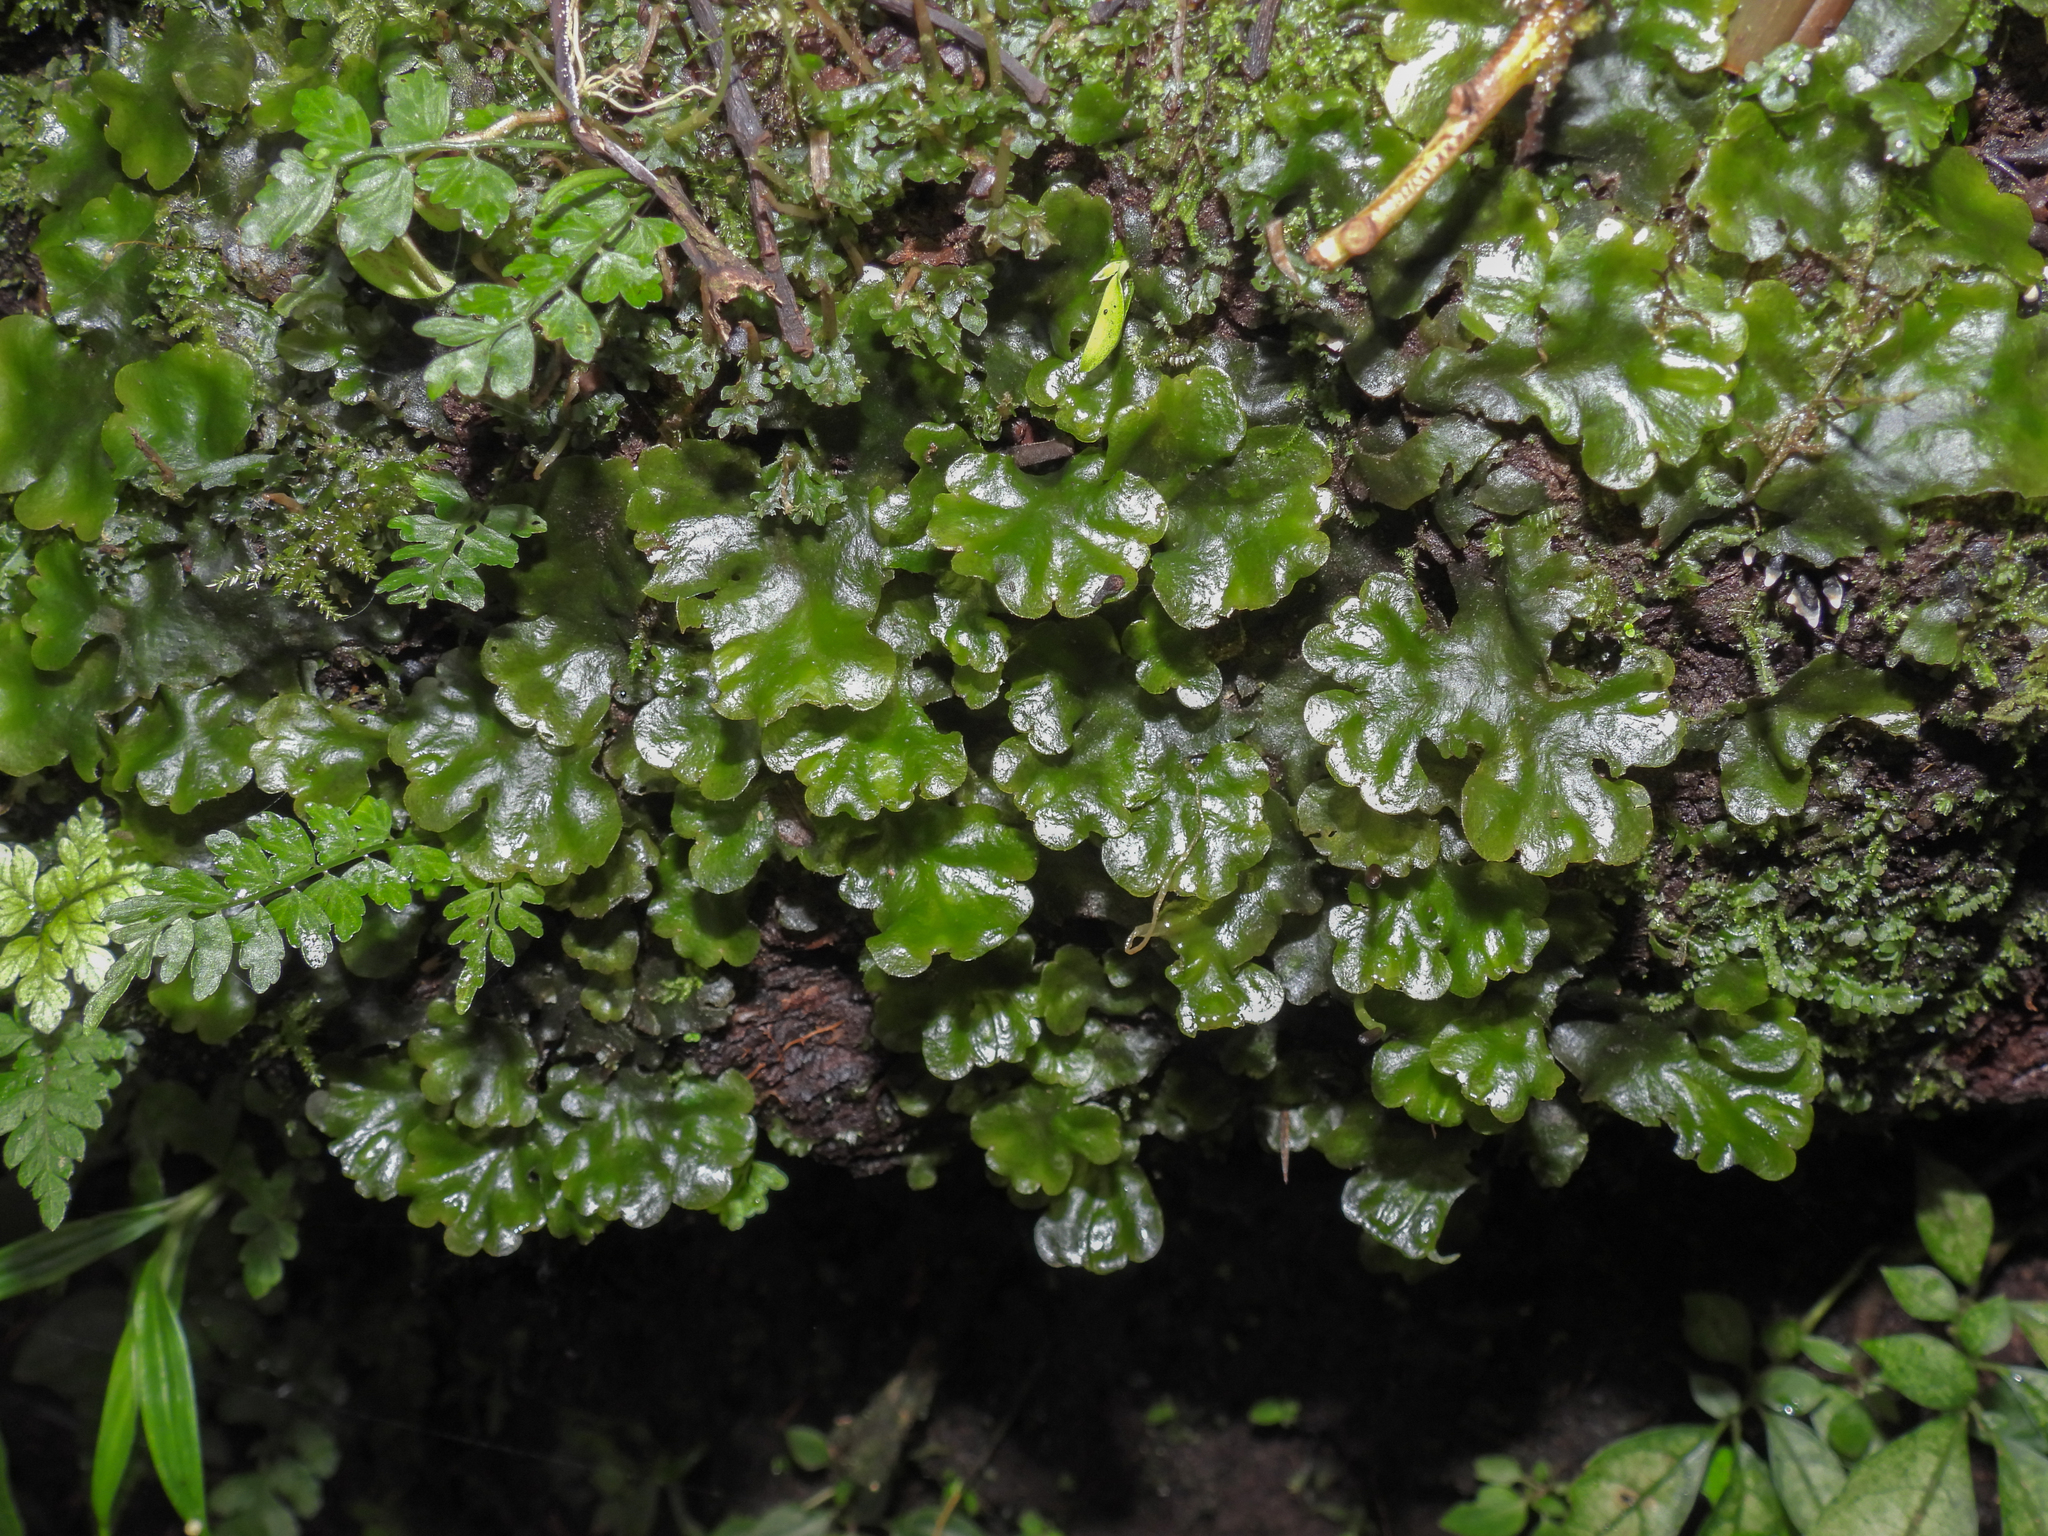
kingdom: Plantae
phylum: Marchantiophyta
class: Marchantiopsida
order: Marchantiales
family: Monocleaceae
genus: Monoclea
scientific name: Monoclea gottschei
